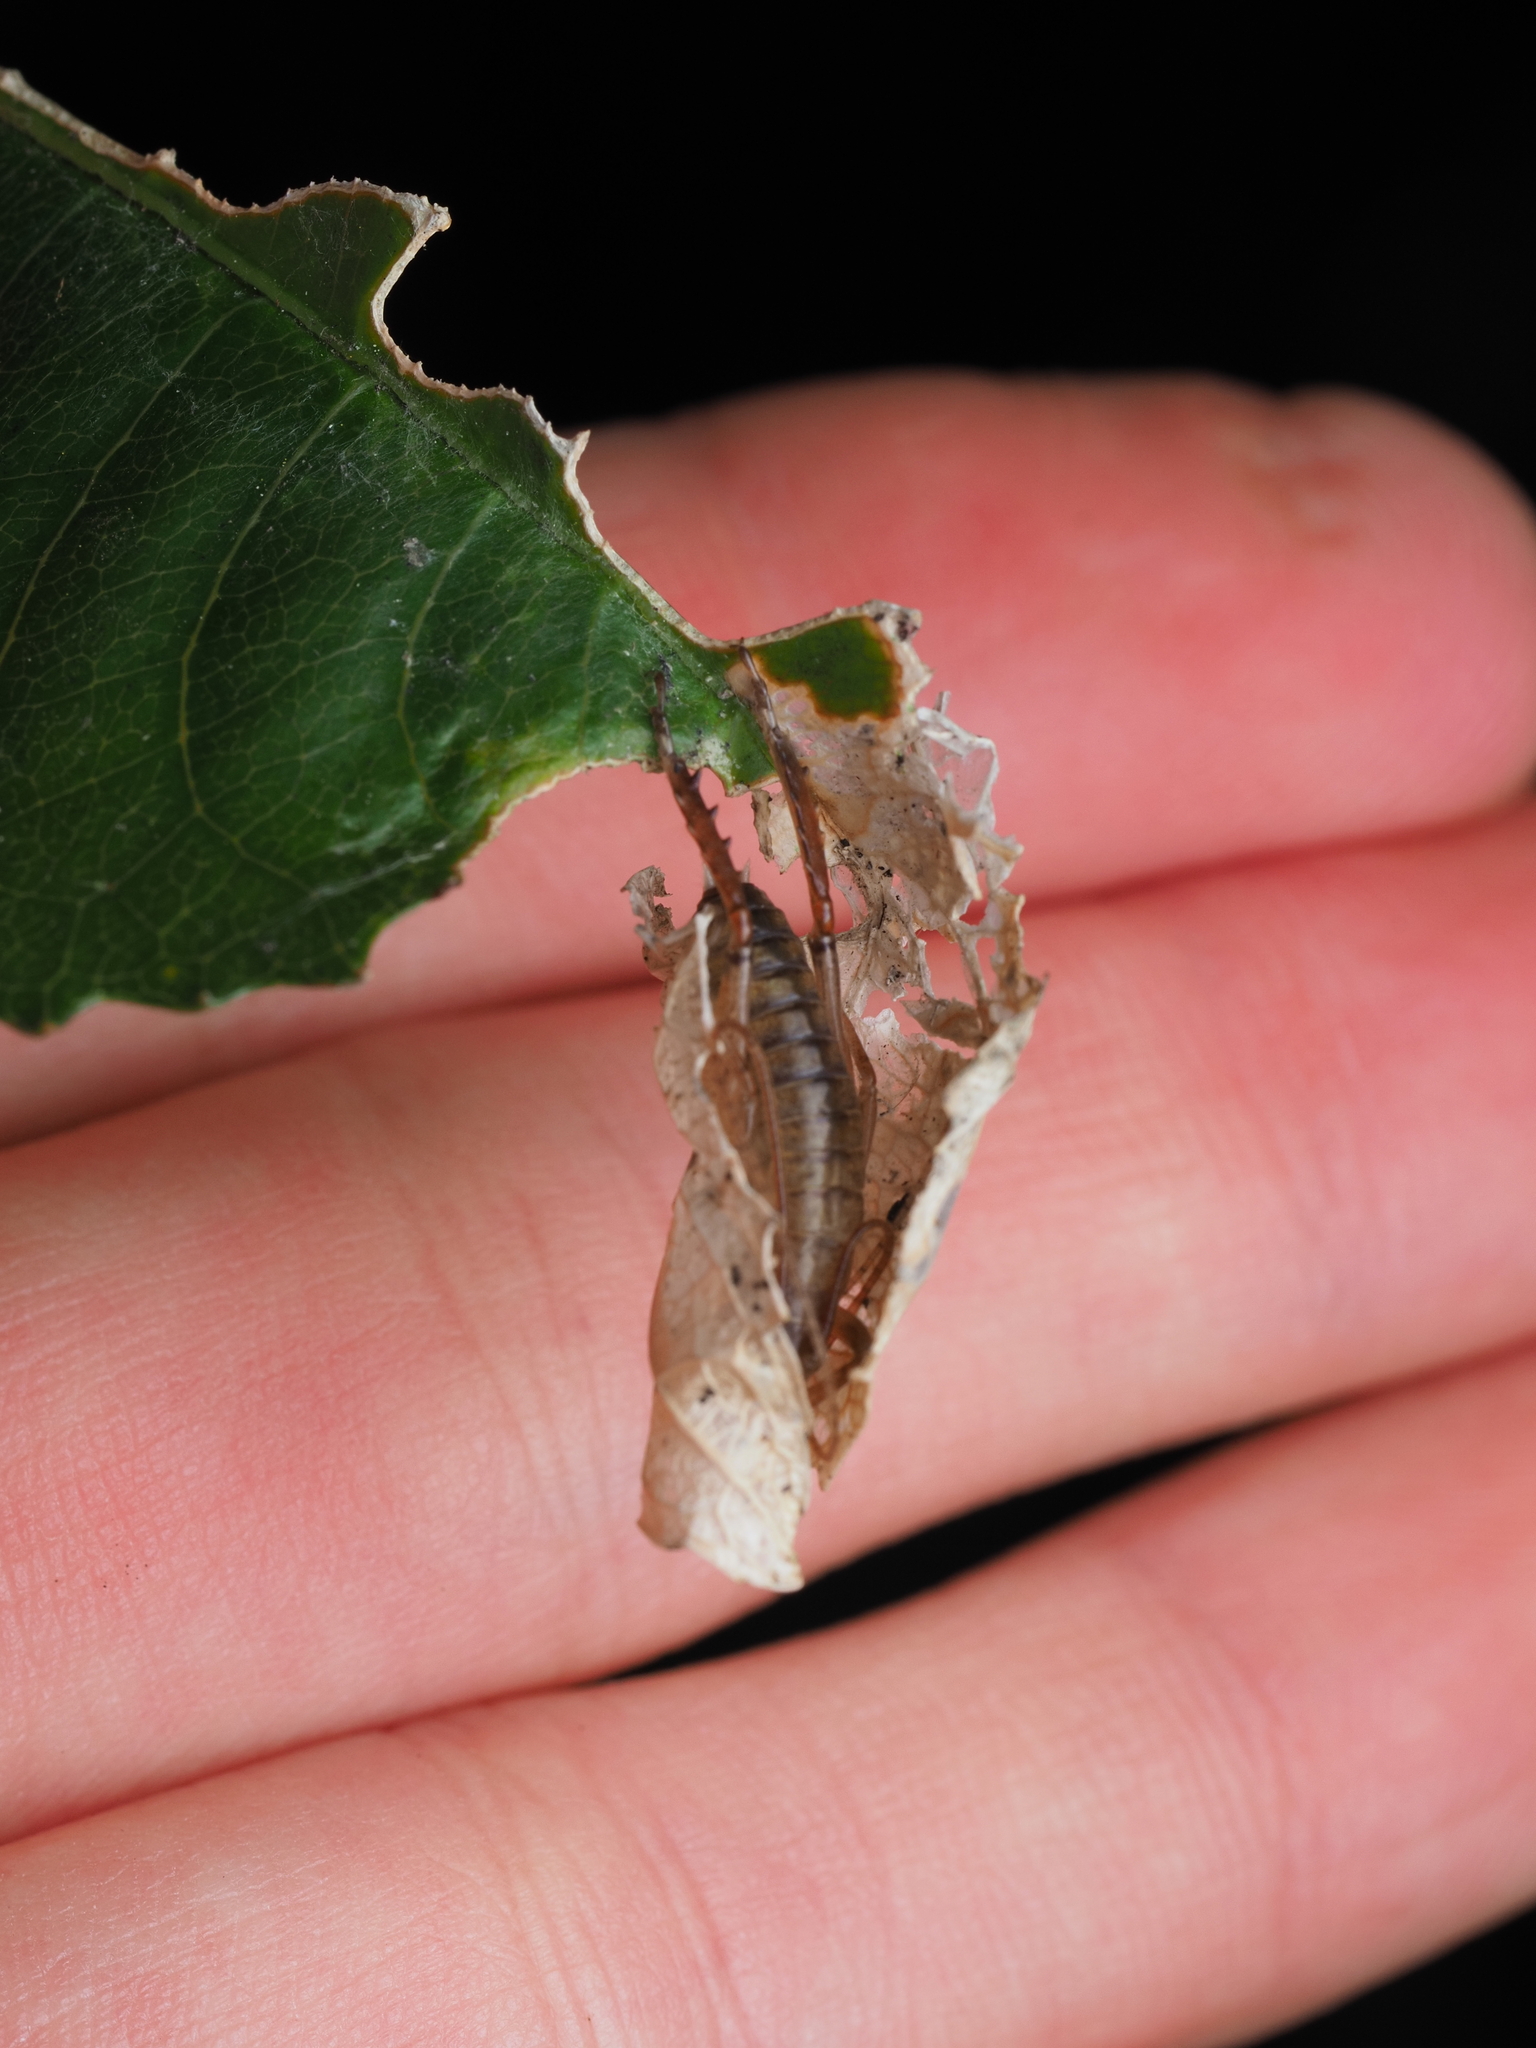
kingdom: Animalia
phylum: Arthropoda
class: Insecta
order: Orthoptera
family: Anostostomatidae
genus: Hemideina
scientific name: Hemideina thoracica
